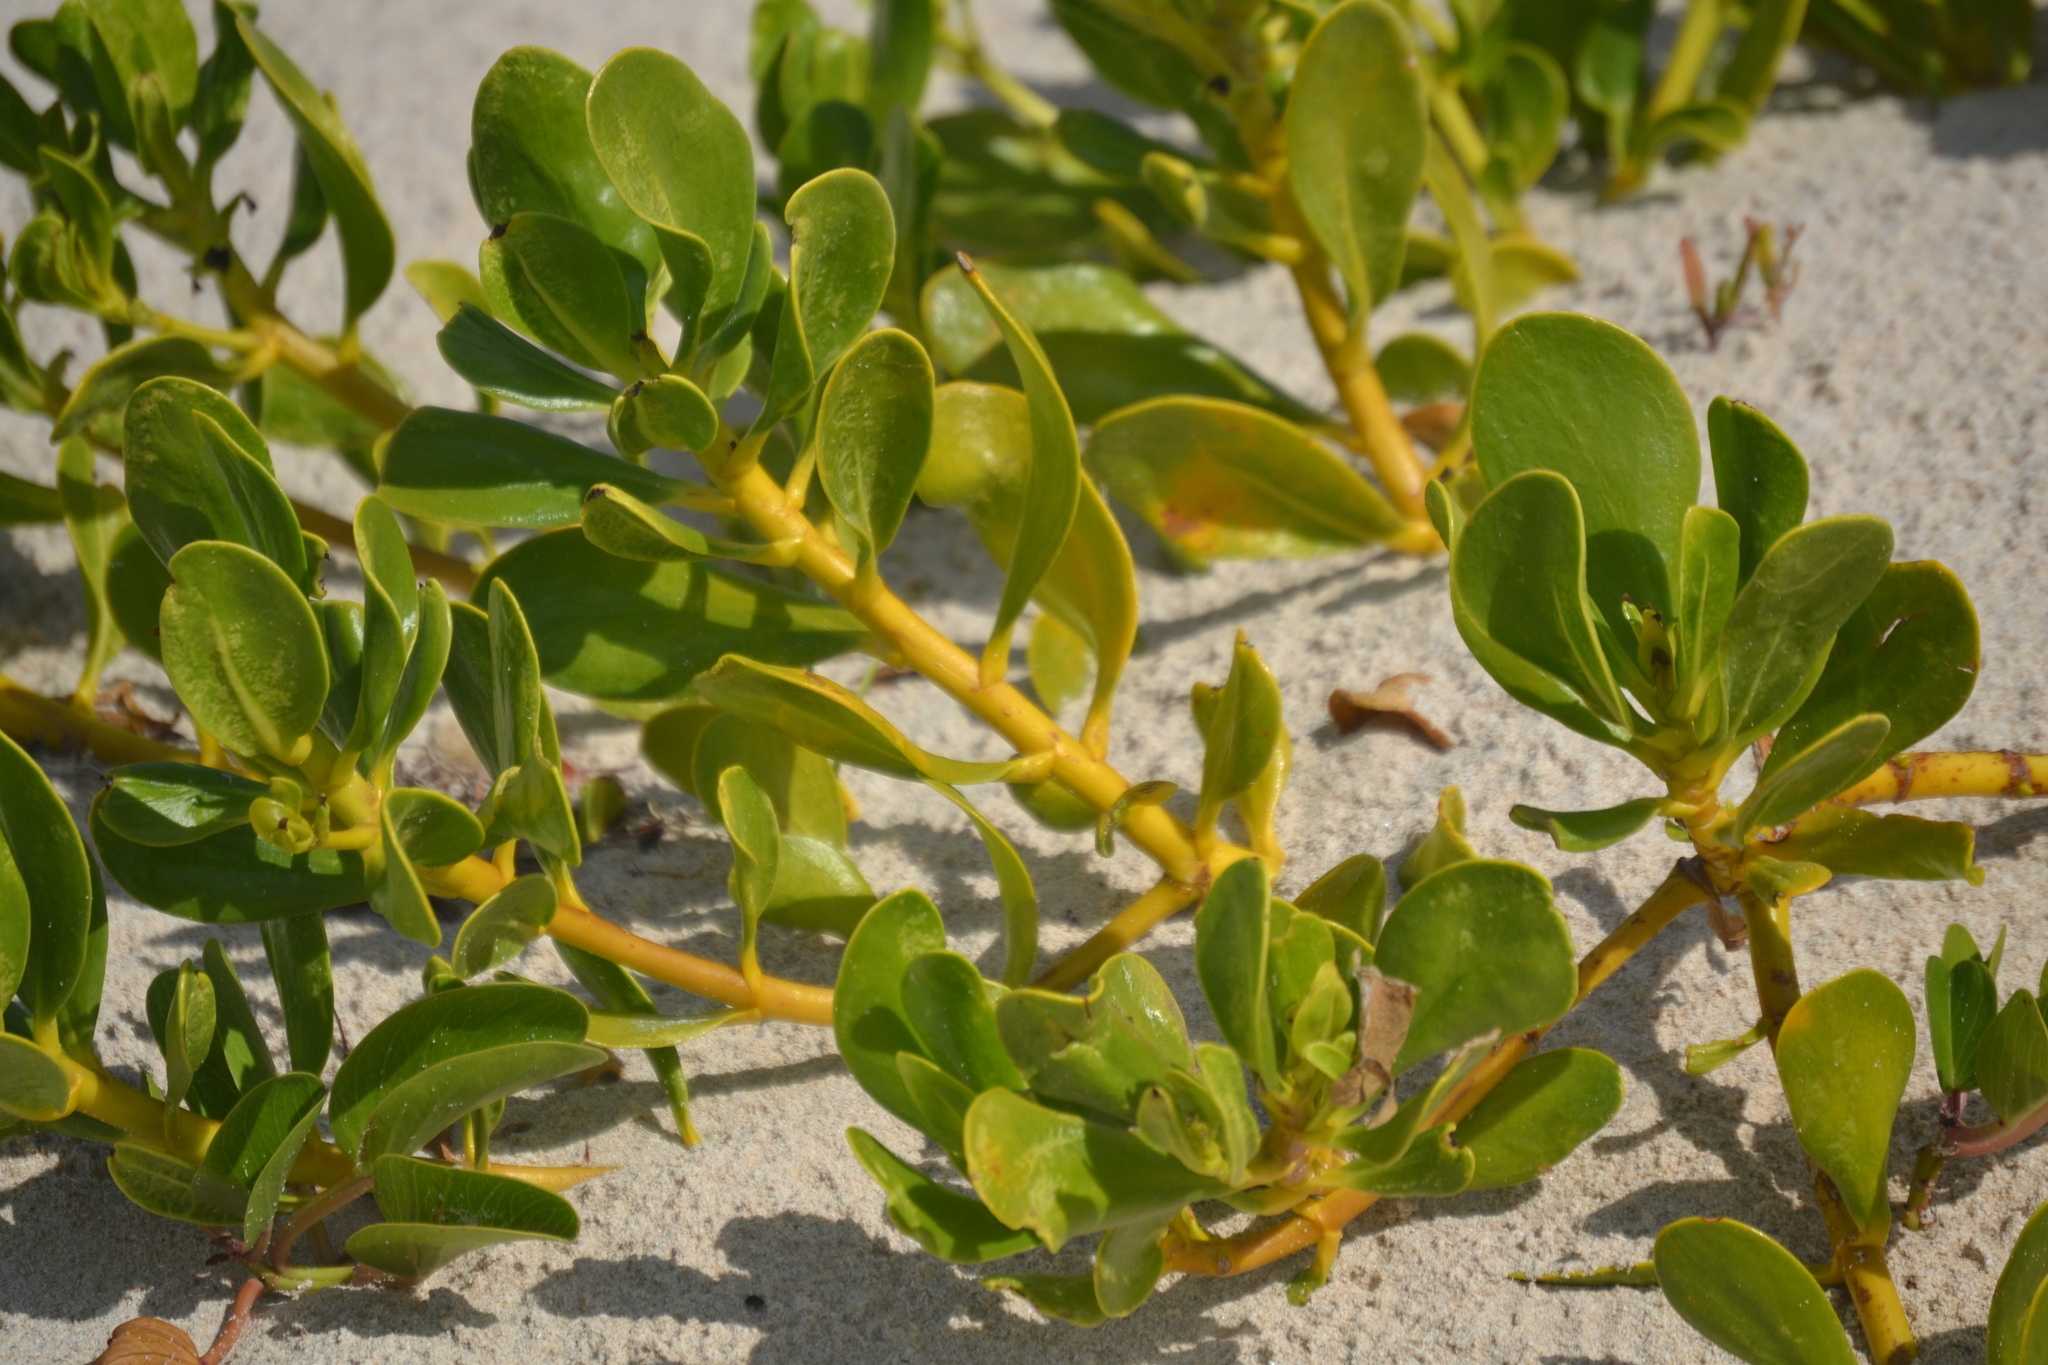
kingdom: Plantae
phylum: Tracheophyta
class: Magnoliopsida
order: Asterales
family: Goodeniaceae
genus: Scaevola
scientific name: Scaevola plumieri
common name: Gull feed
